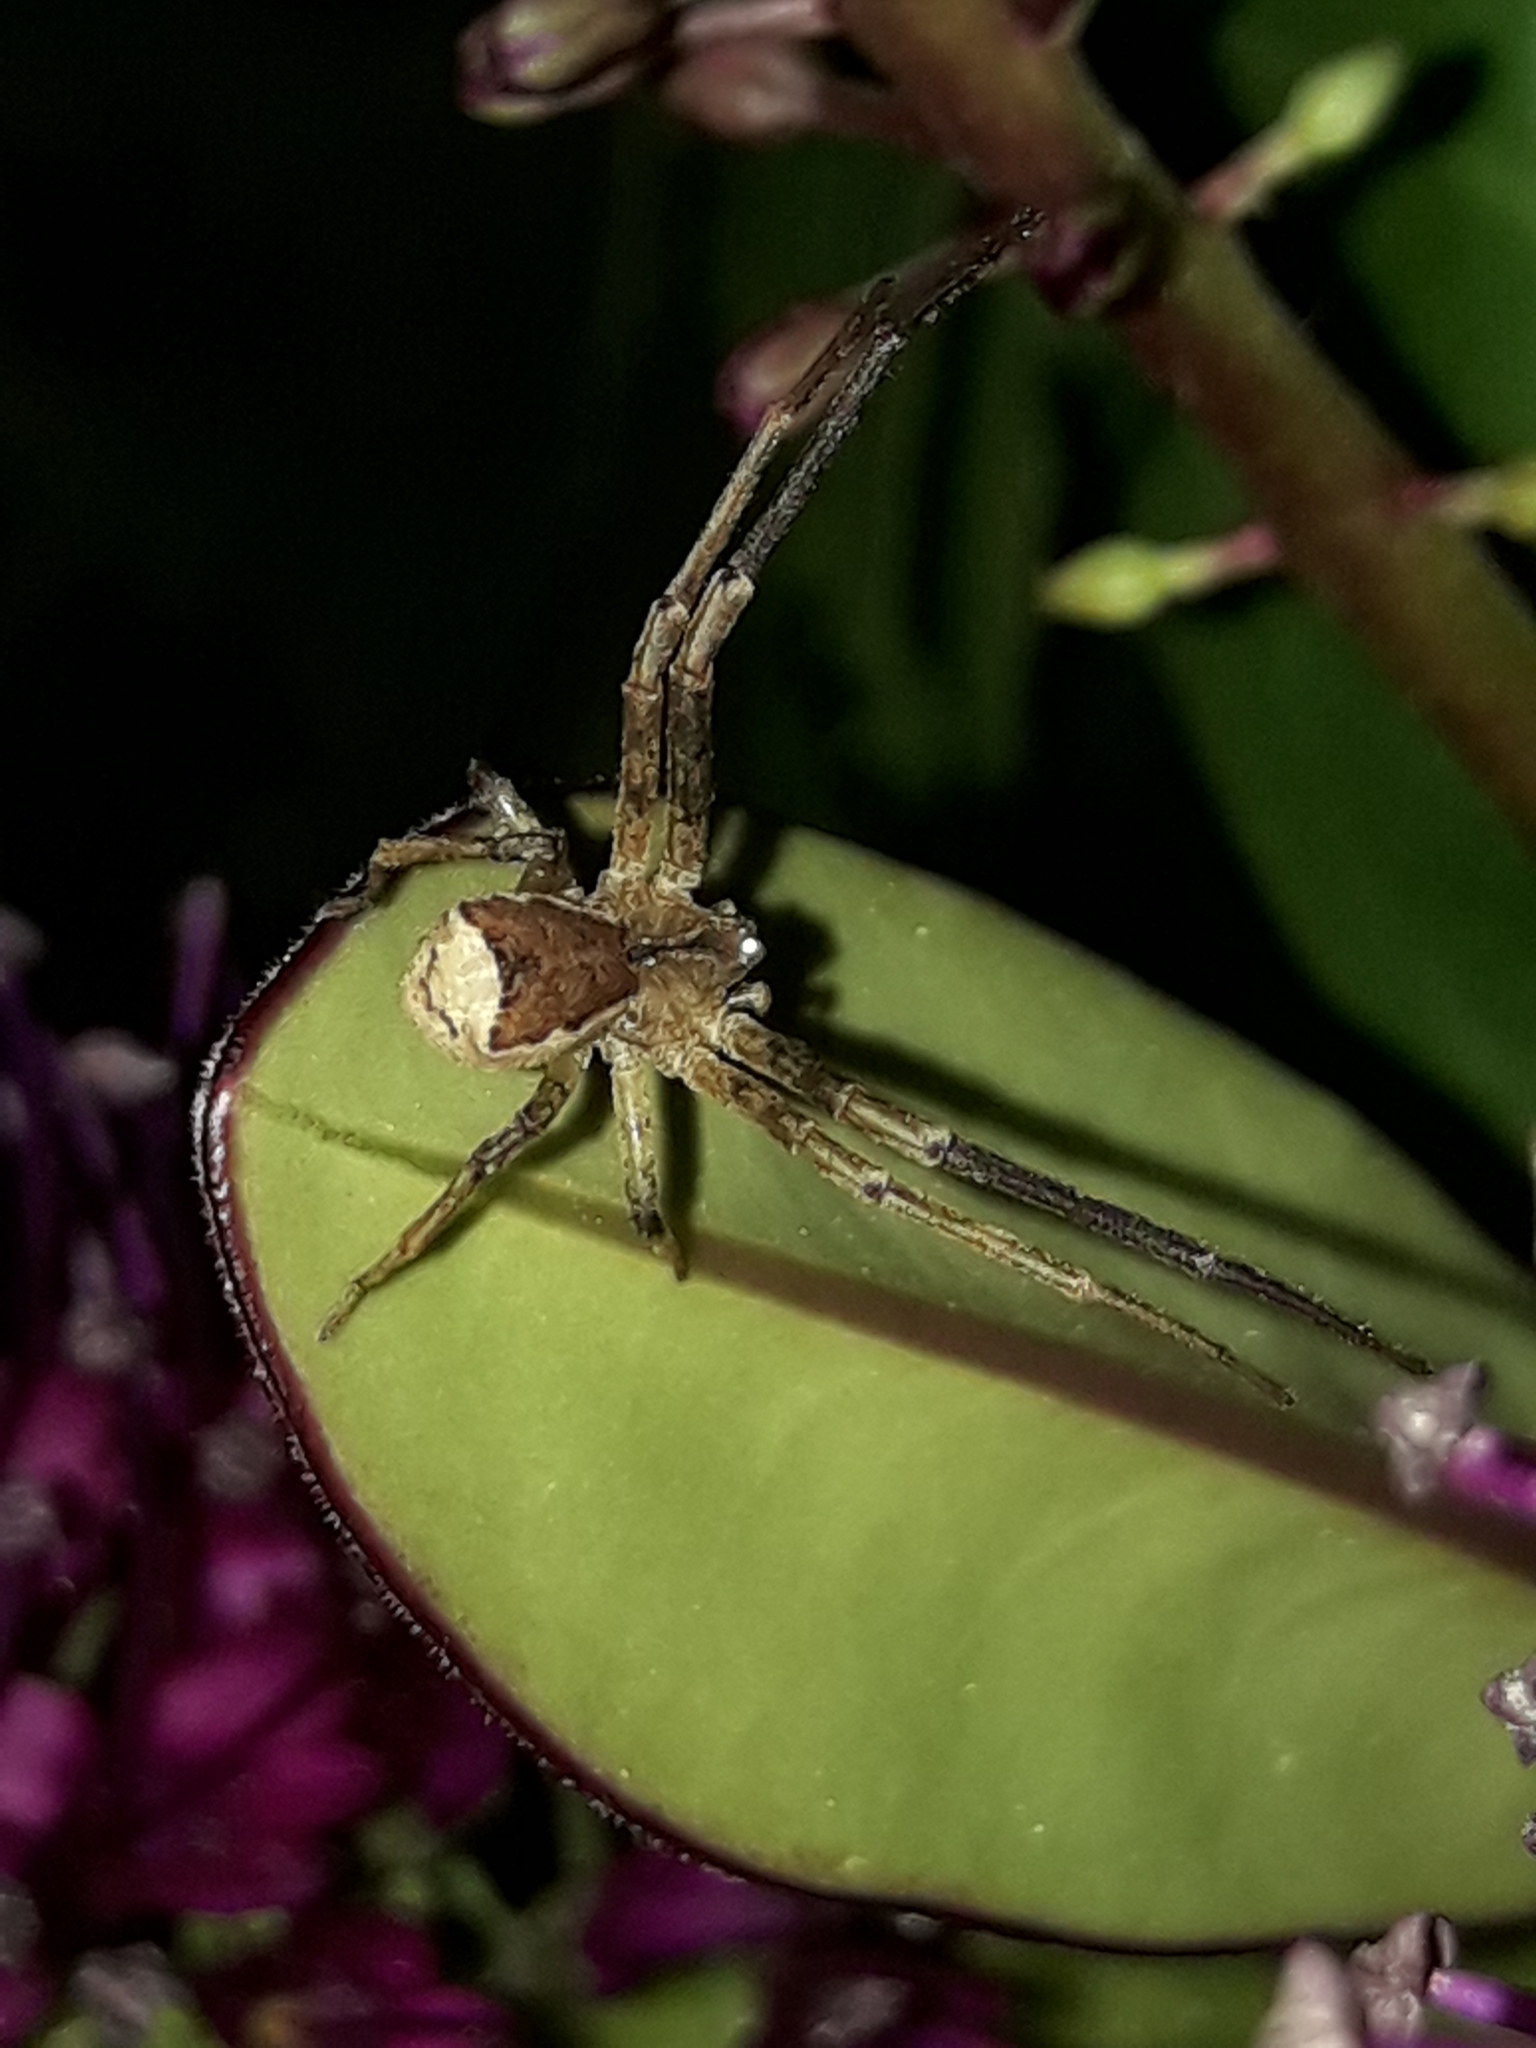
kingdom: Animalia
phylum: Arthropoda
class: Arachnida
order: Araneae
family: Thomisidae
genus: Sidymella
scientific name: Sidymella angularis
